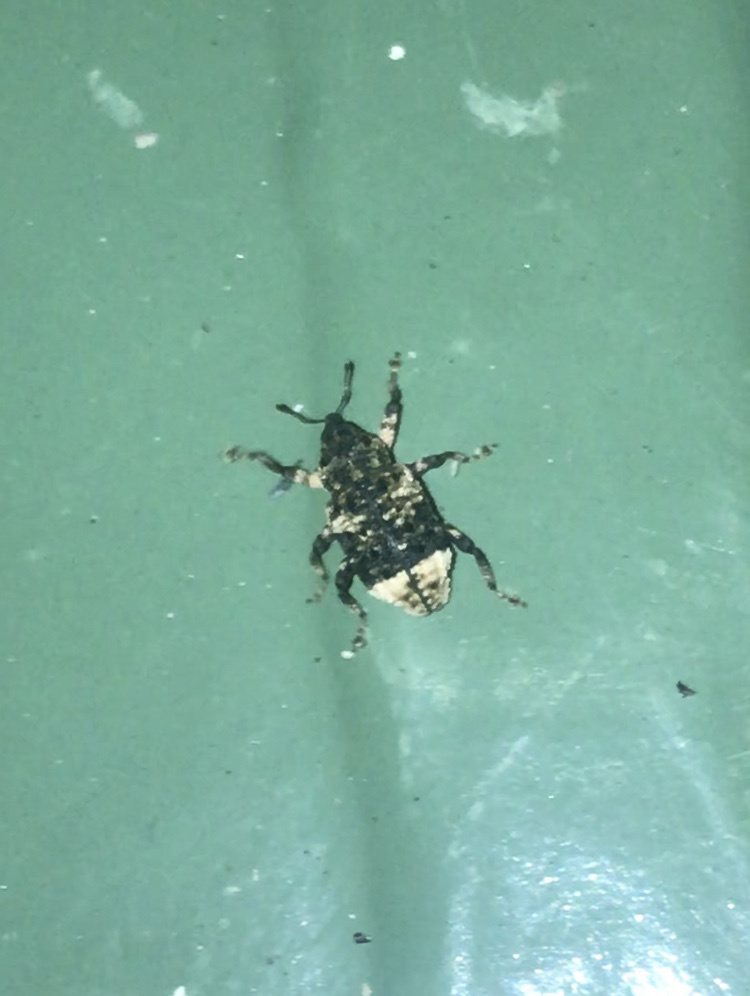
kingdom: Animalia
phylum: Arthropoda
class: Insecta
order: Coleoptera
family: Curculionidae
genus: Cryptorhynchus
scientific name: Cryptorhynchus lapathi
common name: Weevil
